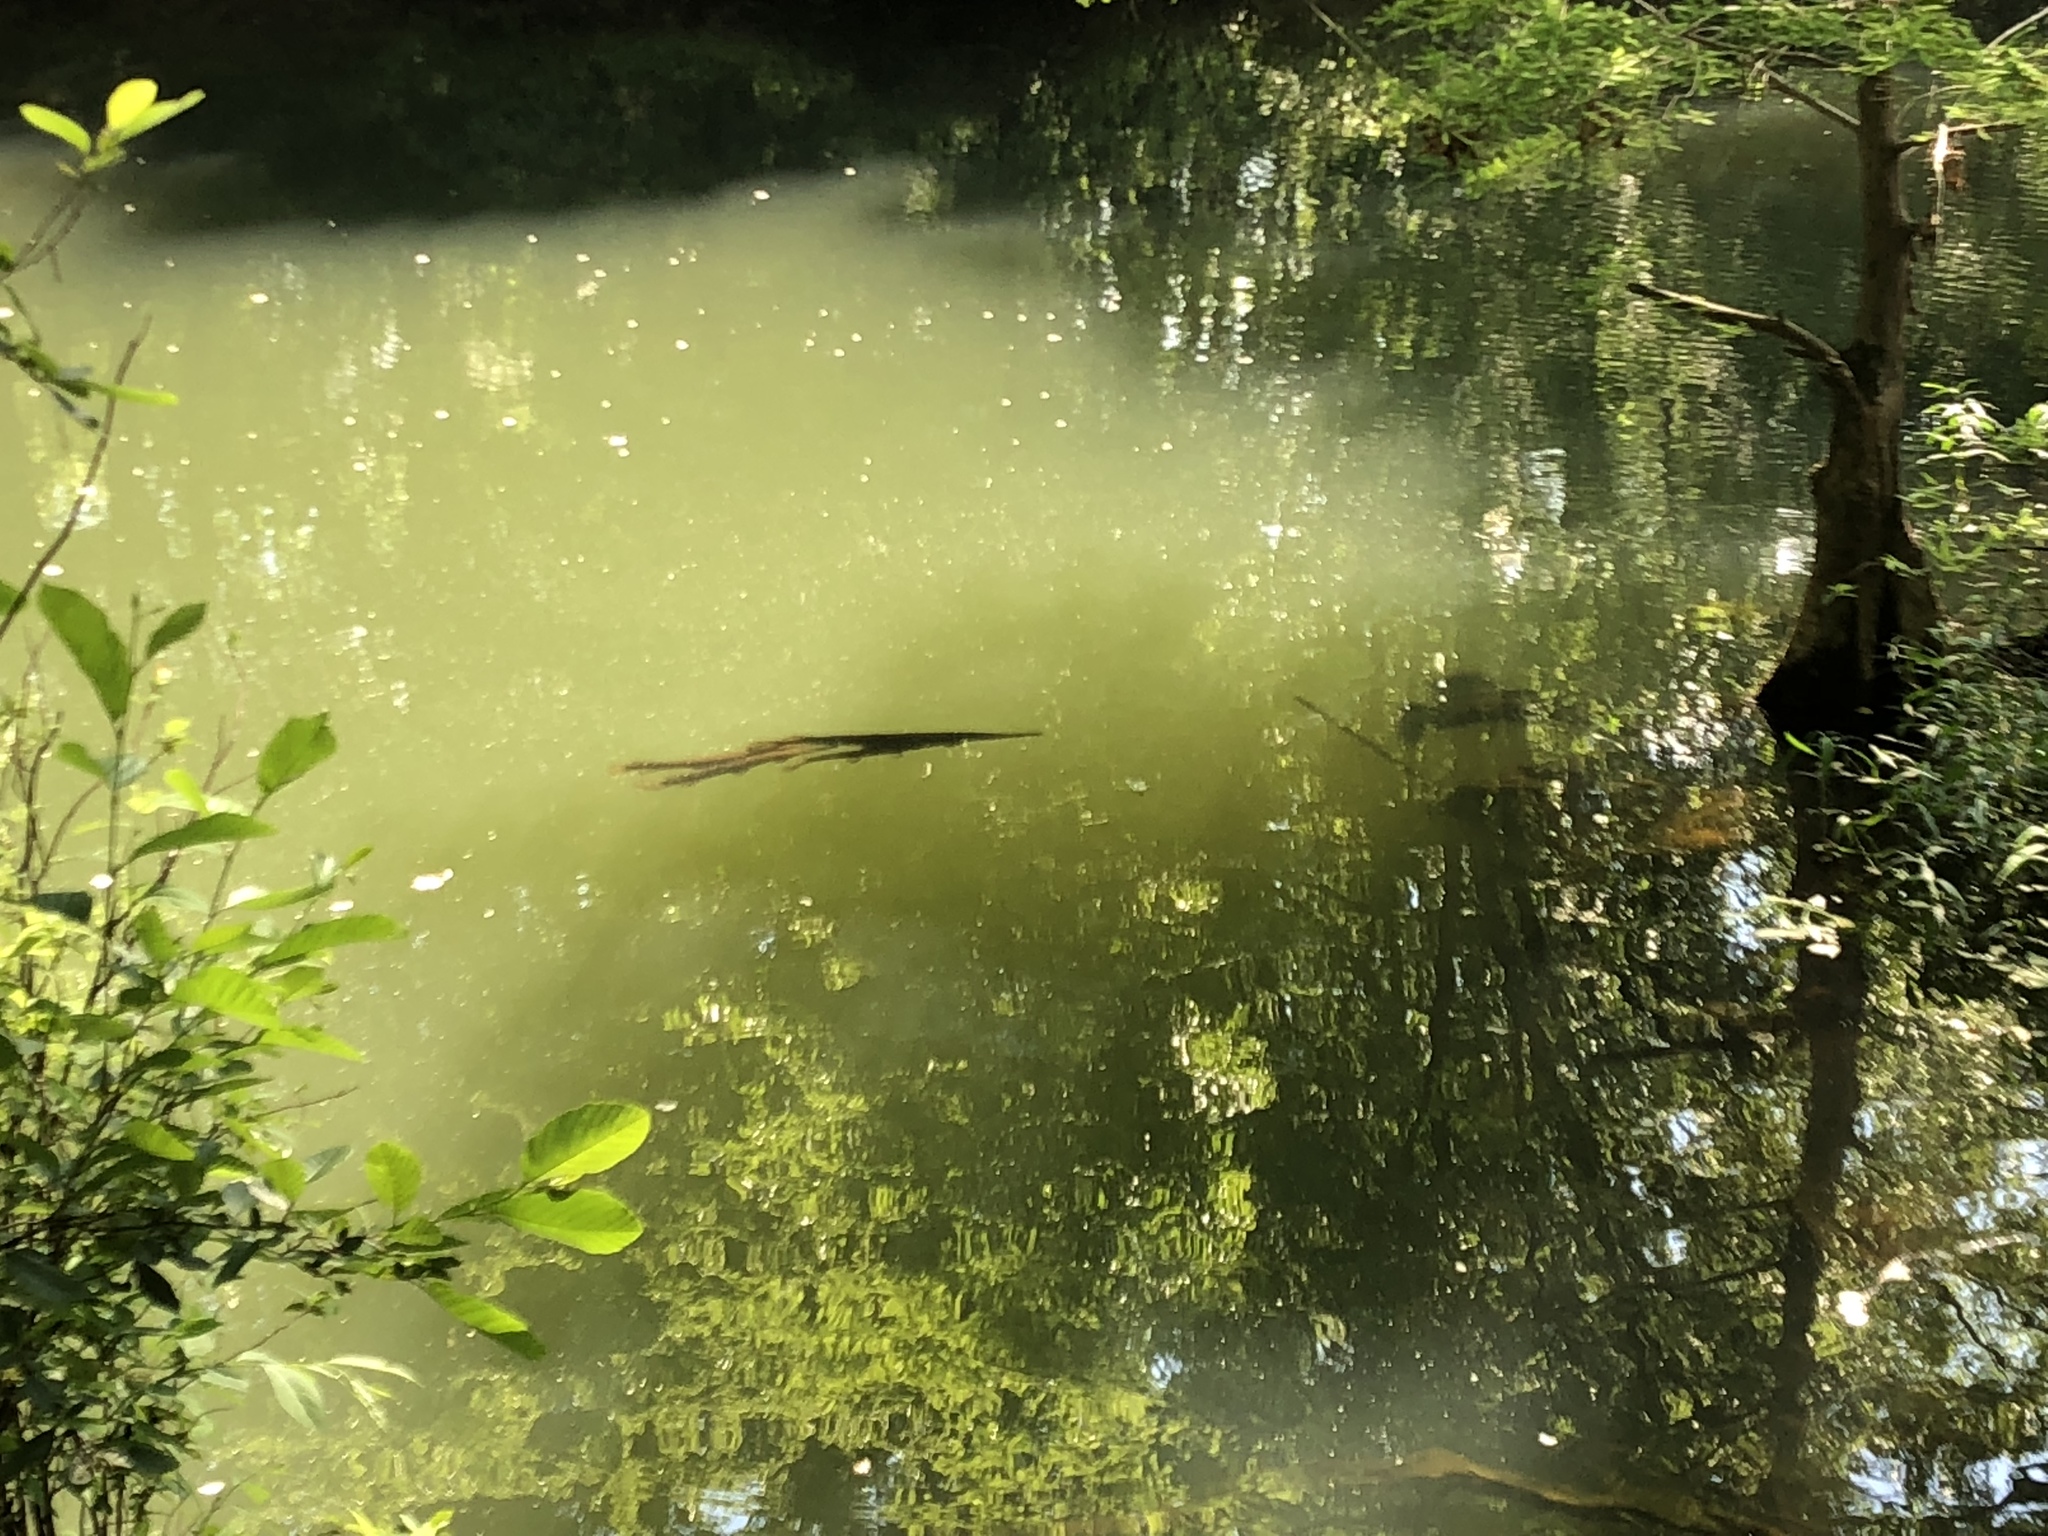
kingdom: Animalia
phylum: Chordata
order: Lepisosteiformes
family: Lepisosteidae
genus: Lepisosteus
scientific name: Lepisosteus osseus
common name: Longnose gar
